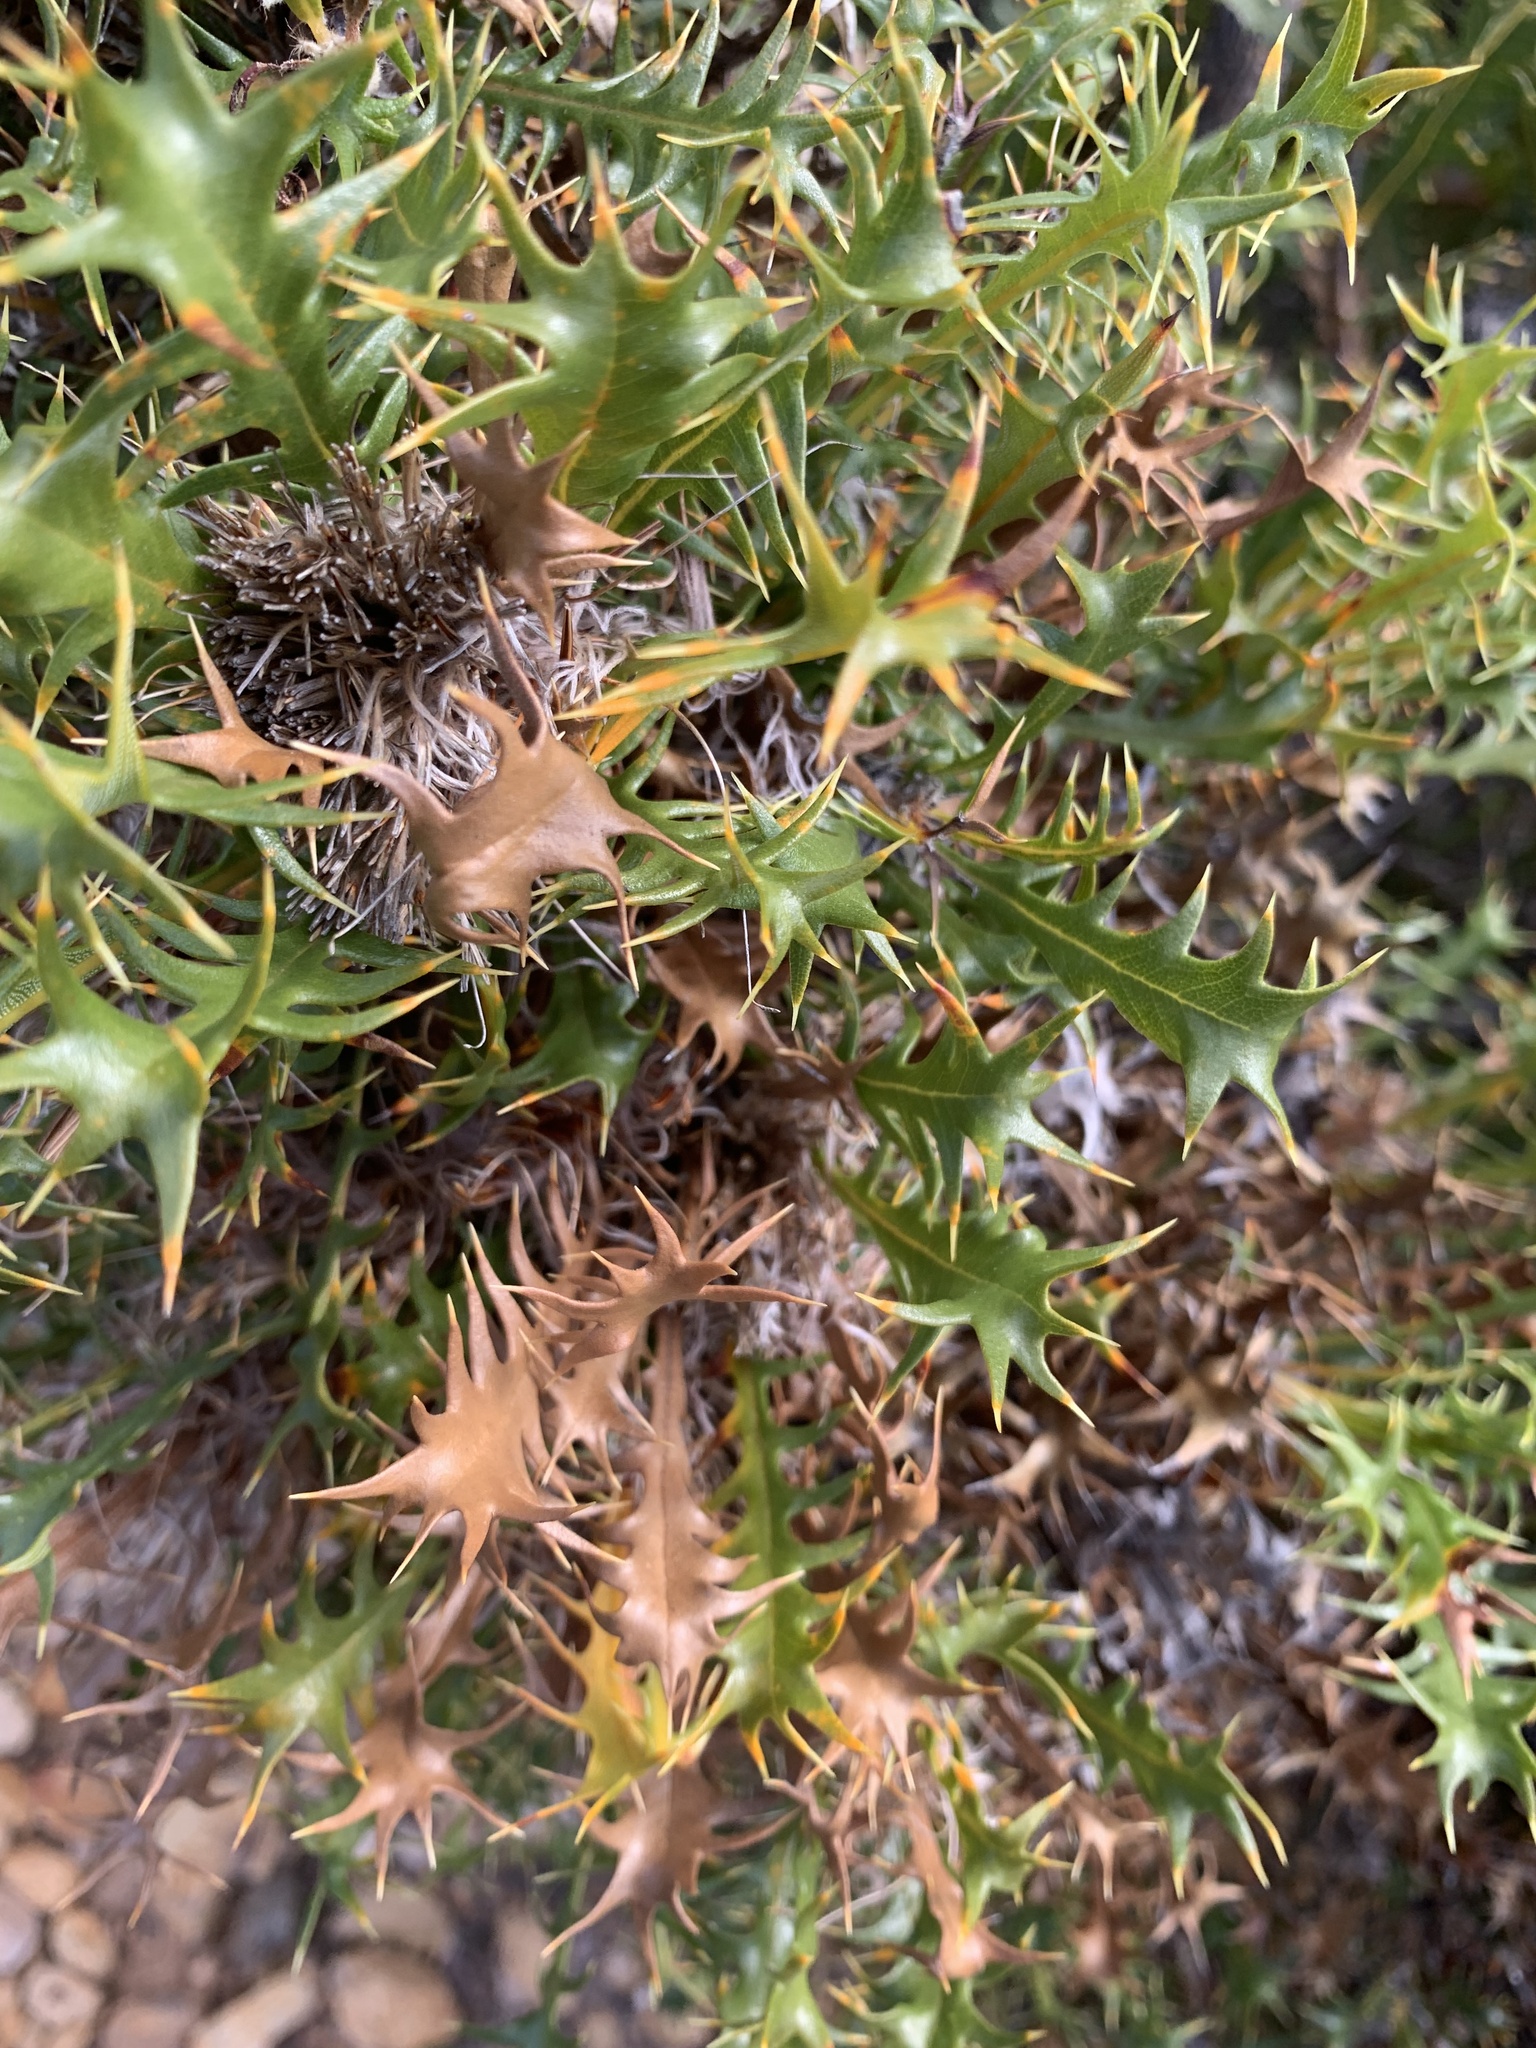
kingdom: Plantae
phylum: Tracheophyta
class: Magnoliopsida
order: Proteales
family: Proteaceae
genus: Banksia
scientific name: Banksia falcata
